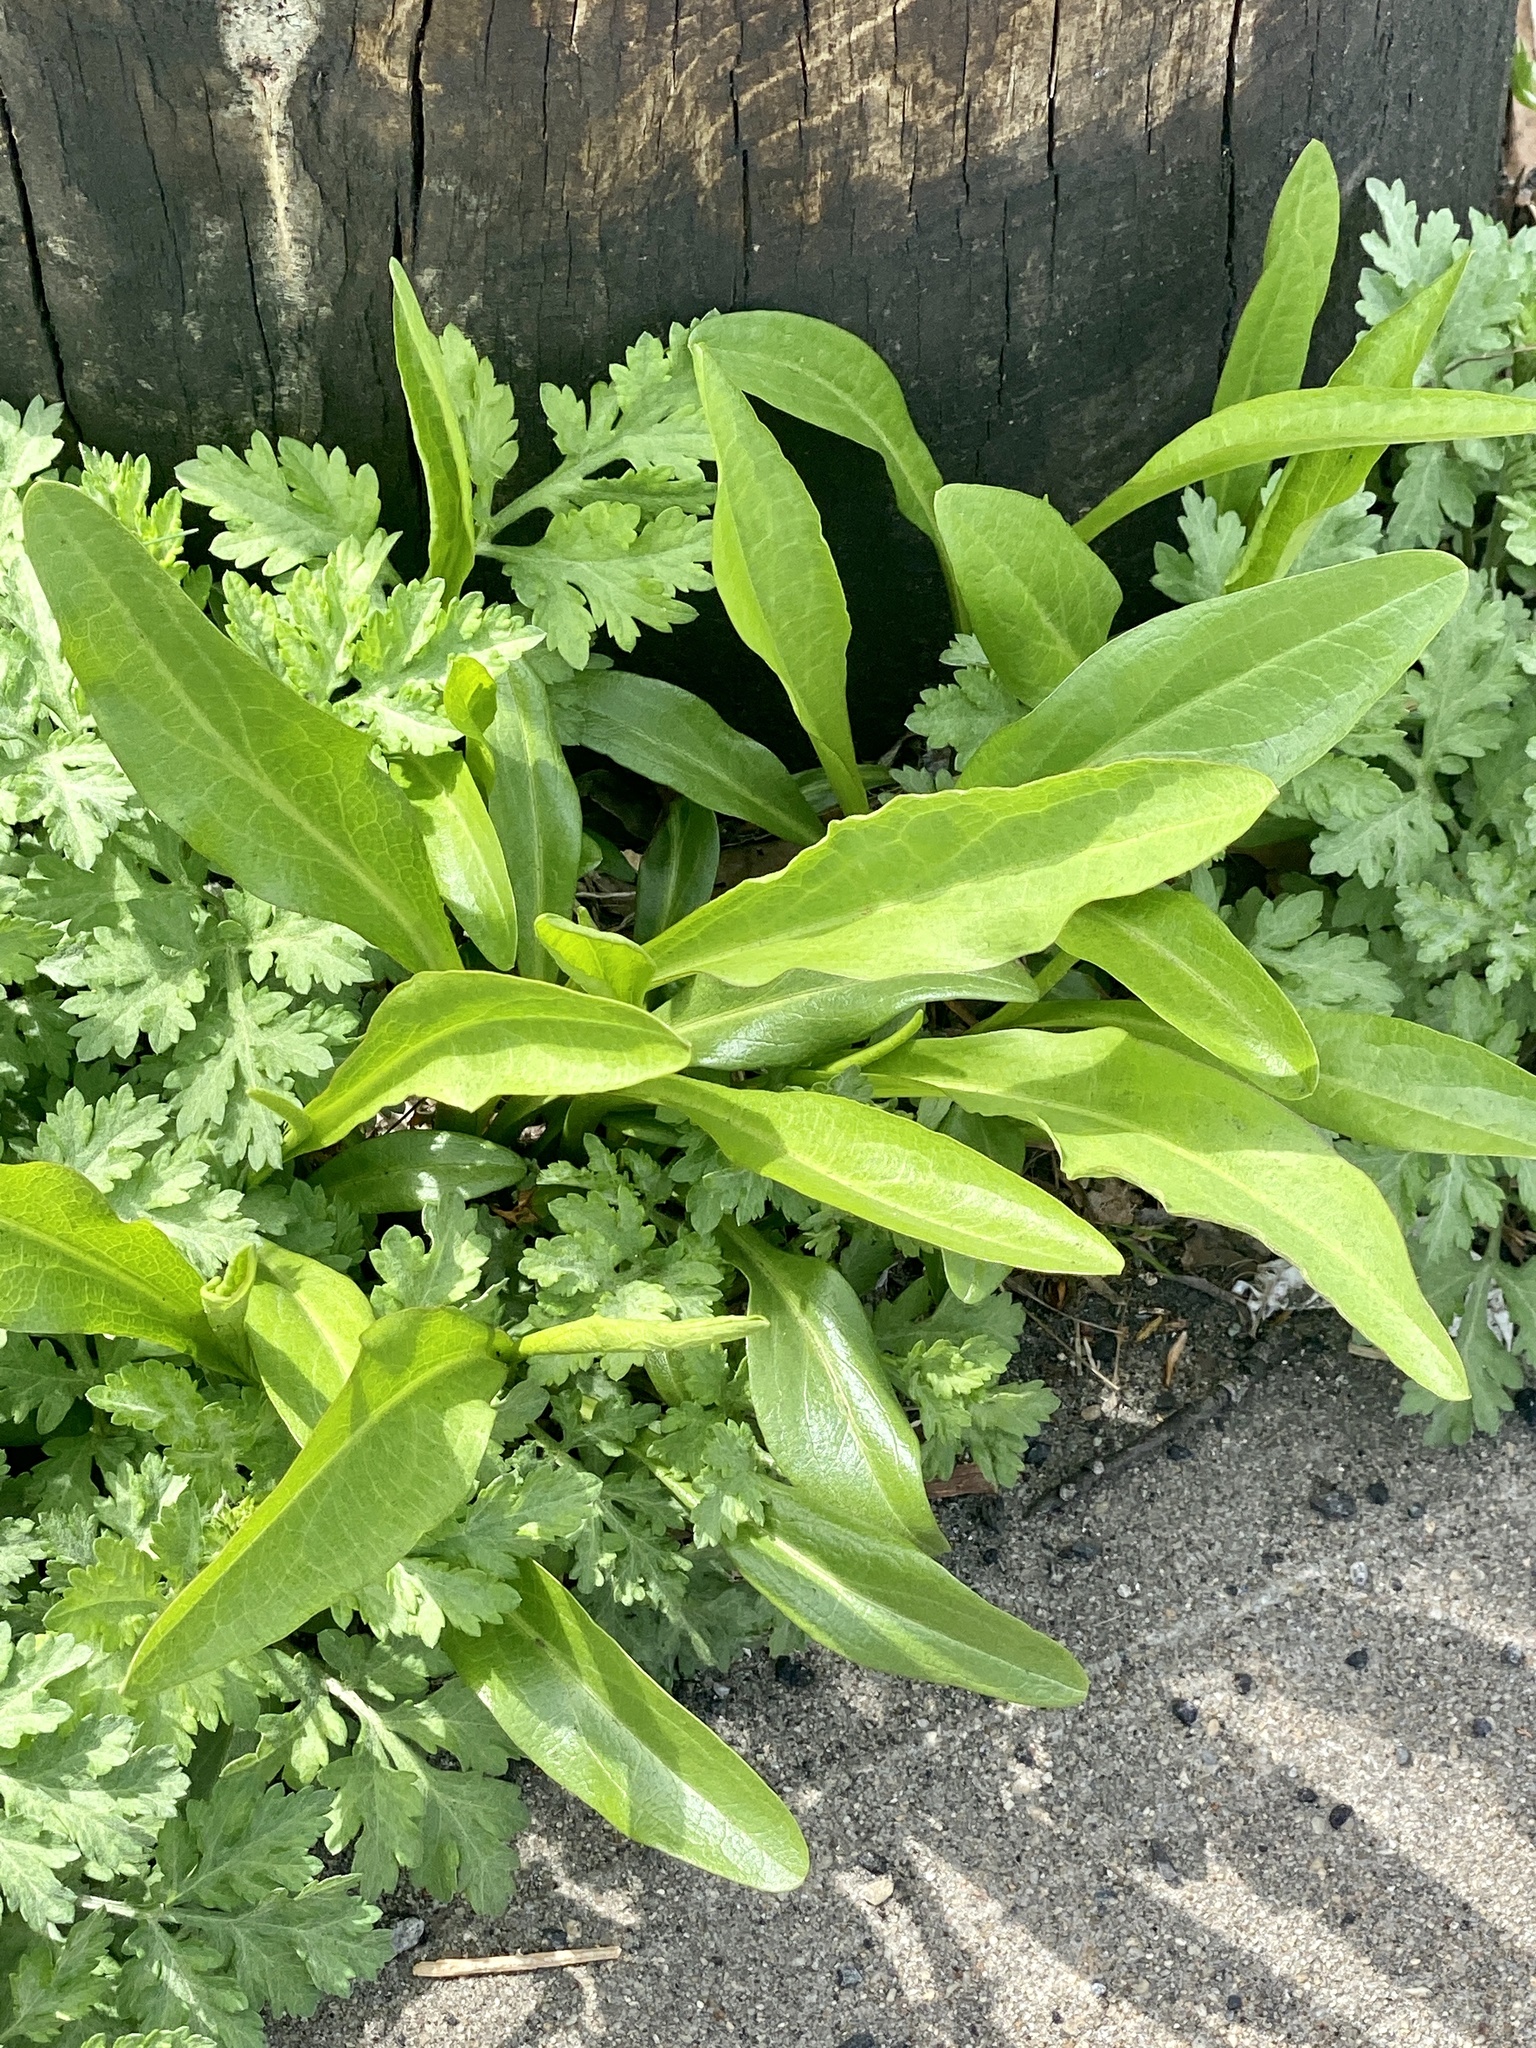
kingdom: Plantae
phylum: Tracheophyta
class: Magnoliopsida
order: Asterales
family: Asteraceae
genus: Solidago
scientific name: Solidago sempervirens
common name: Salt-marsh goldenrod
